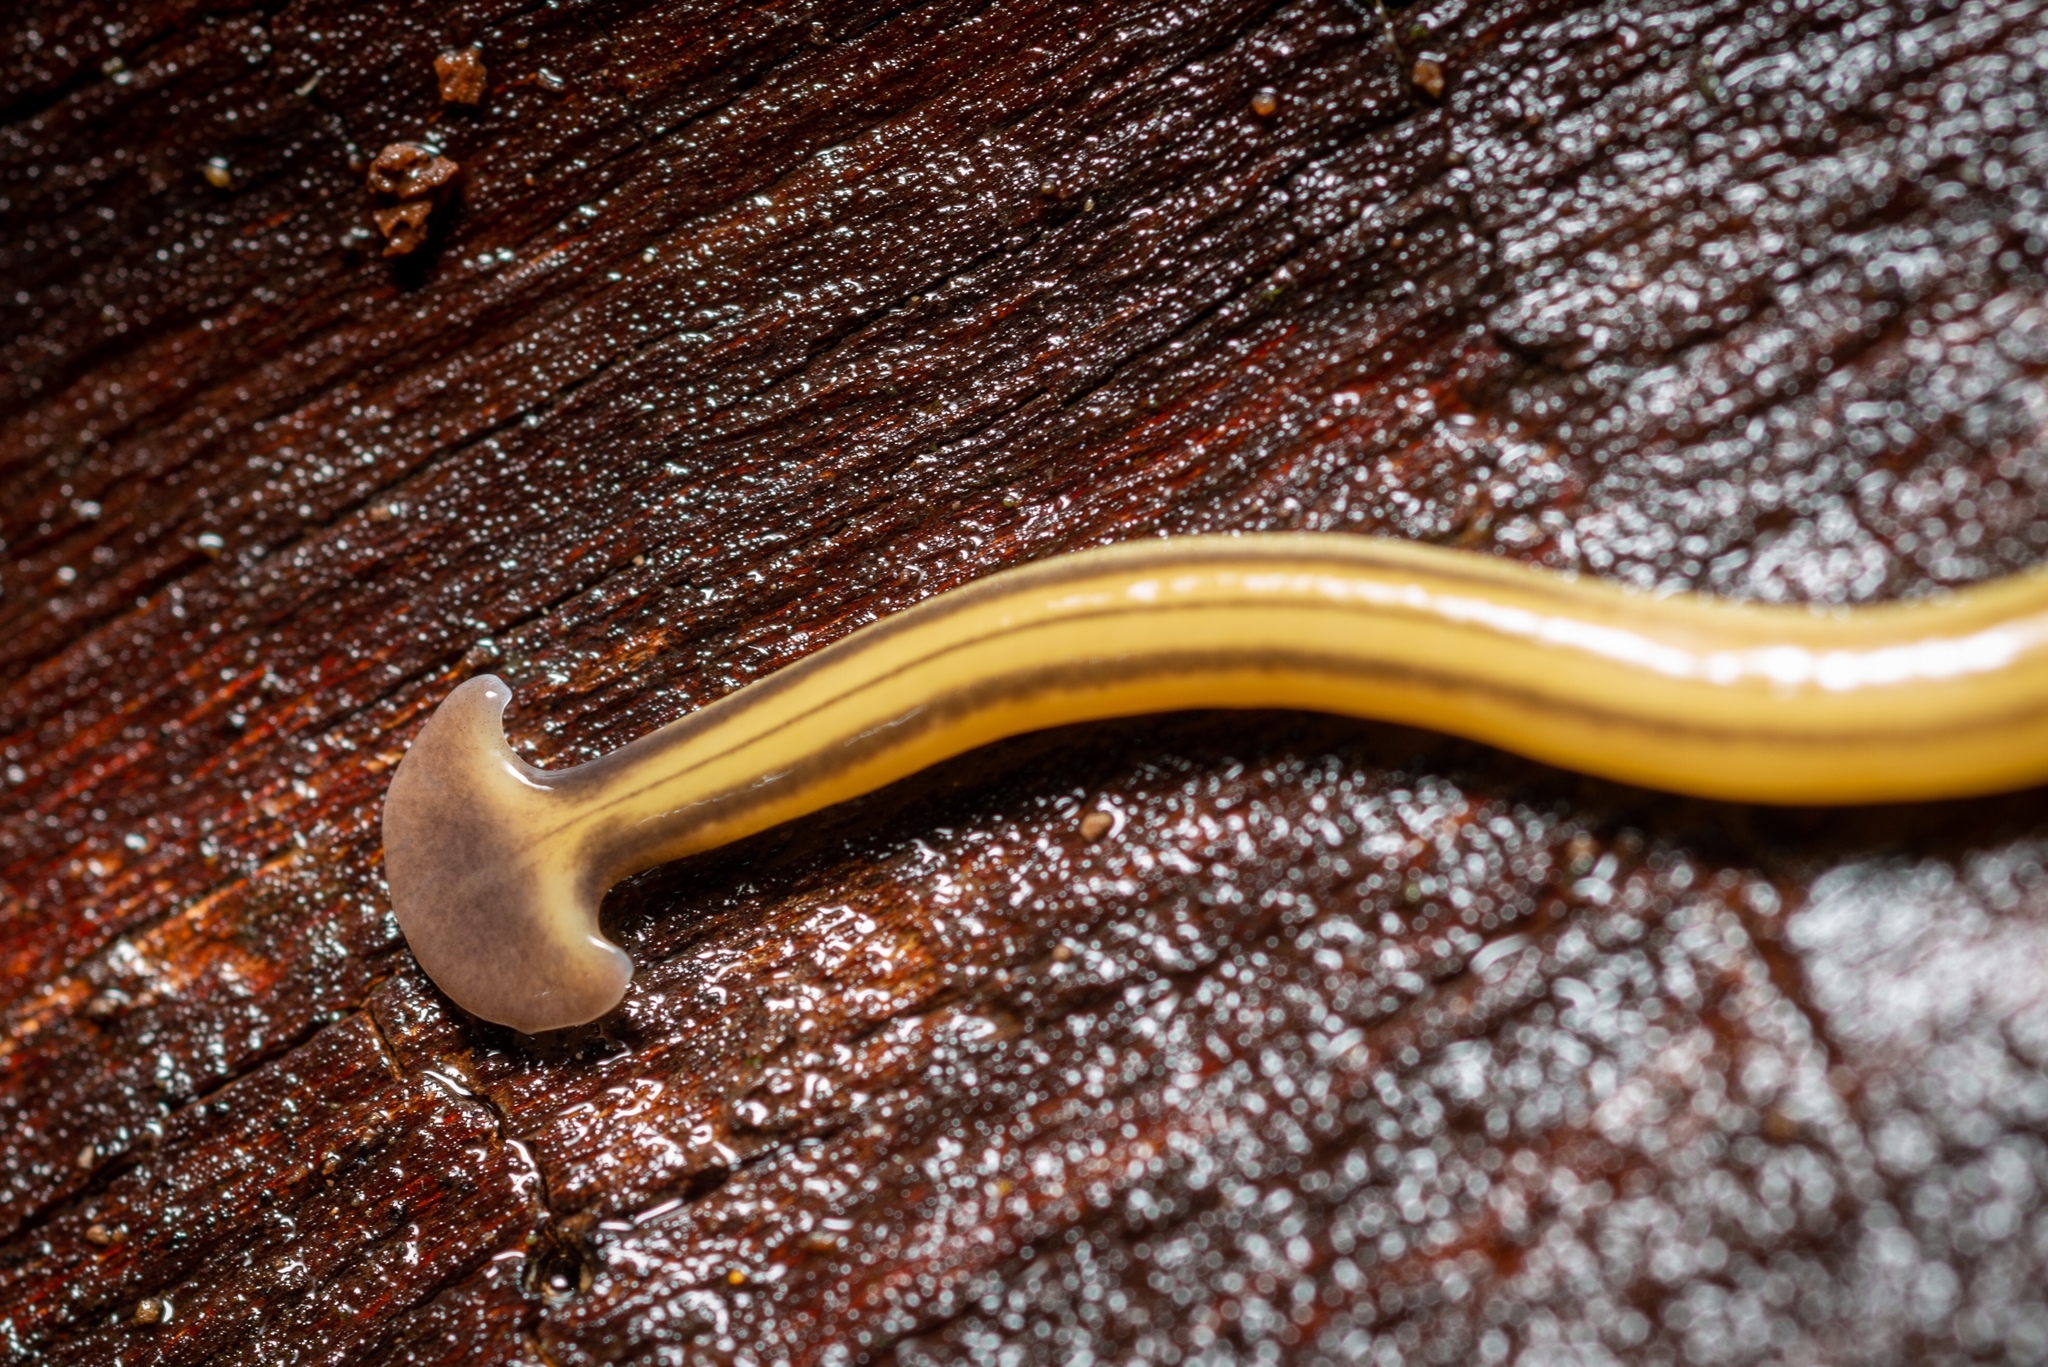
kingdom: Animalia
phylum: Platyhelminthes
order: Tricladida
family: Geoplanidae
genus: Bipalium
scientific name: Bipalium kewense
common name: Hammerhead flatworm
